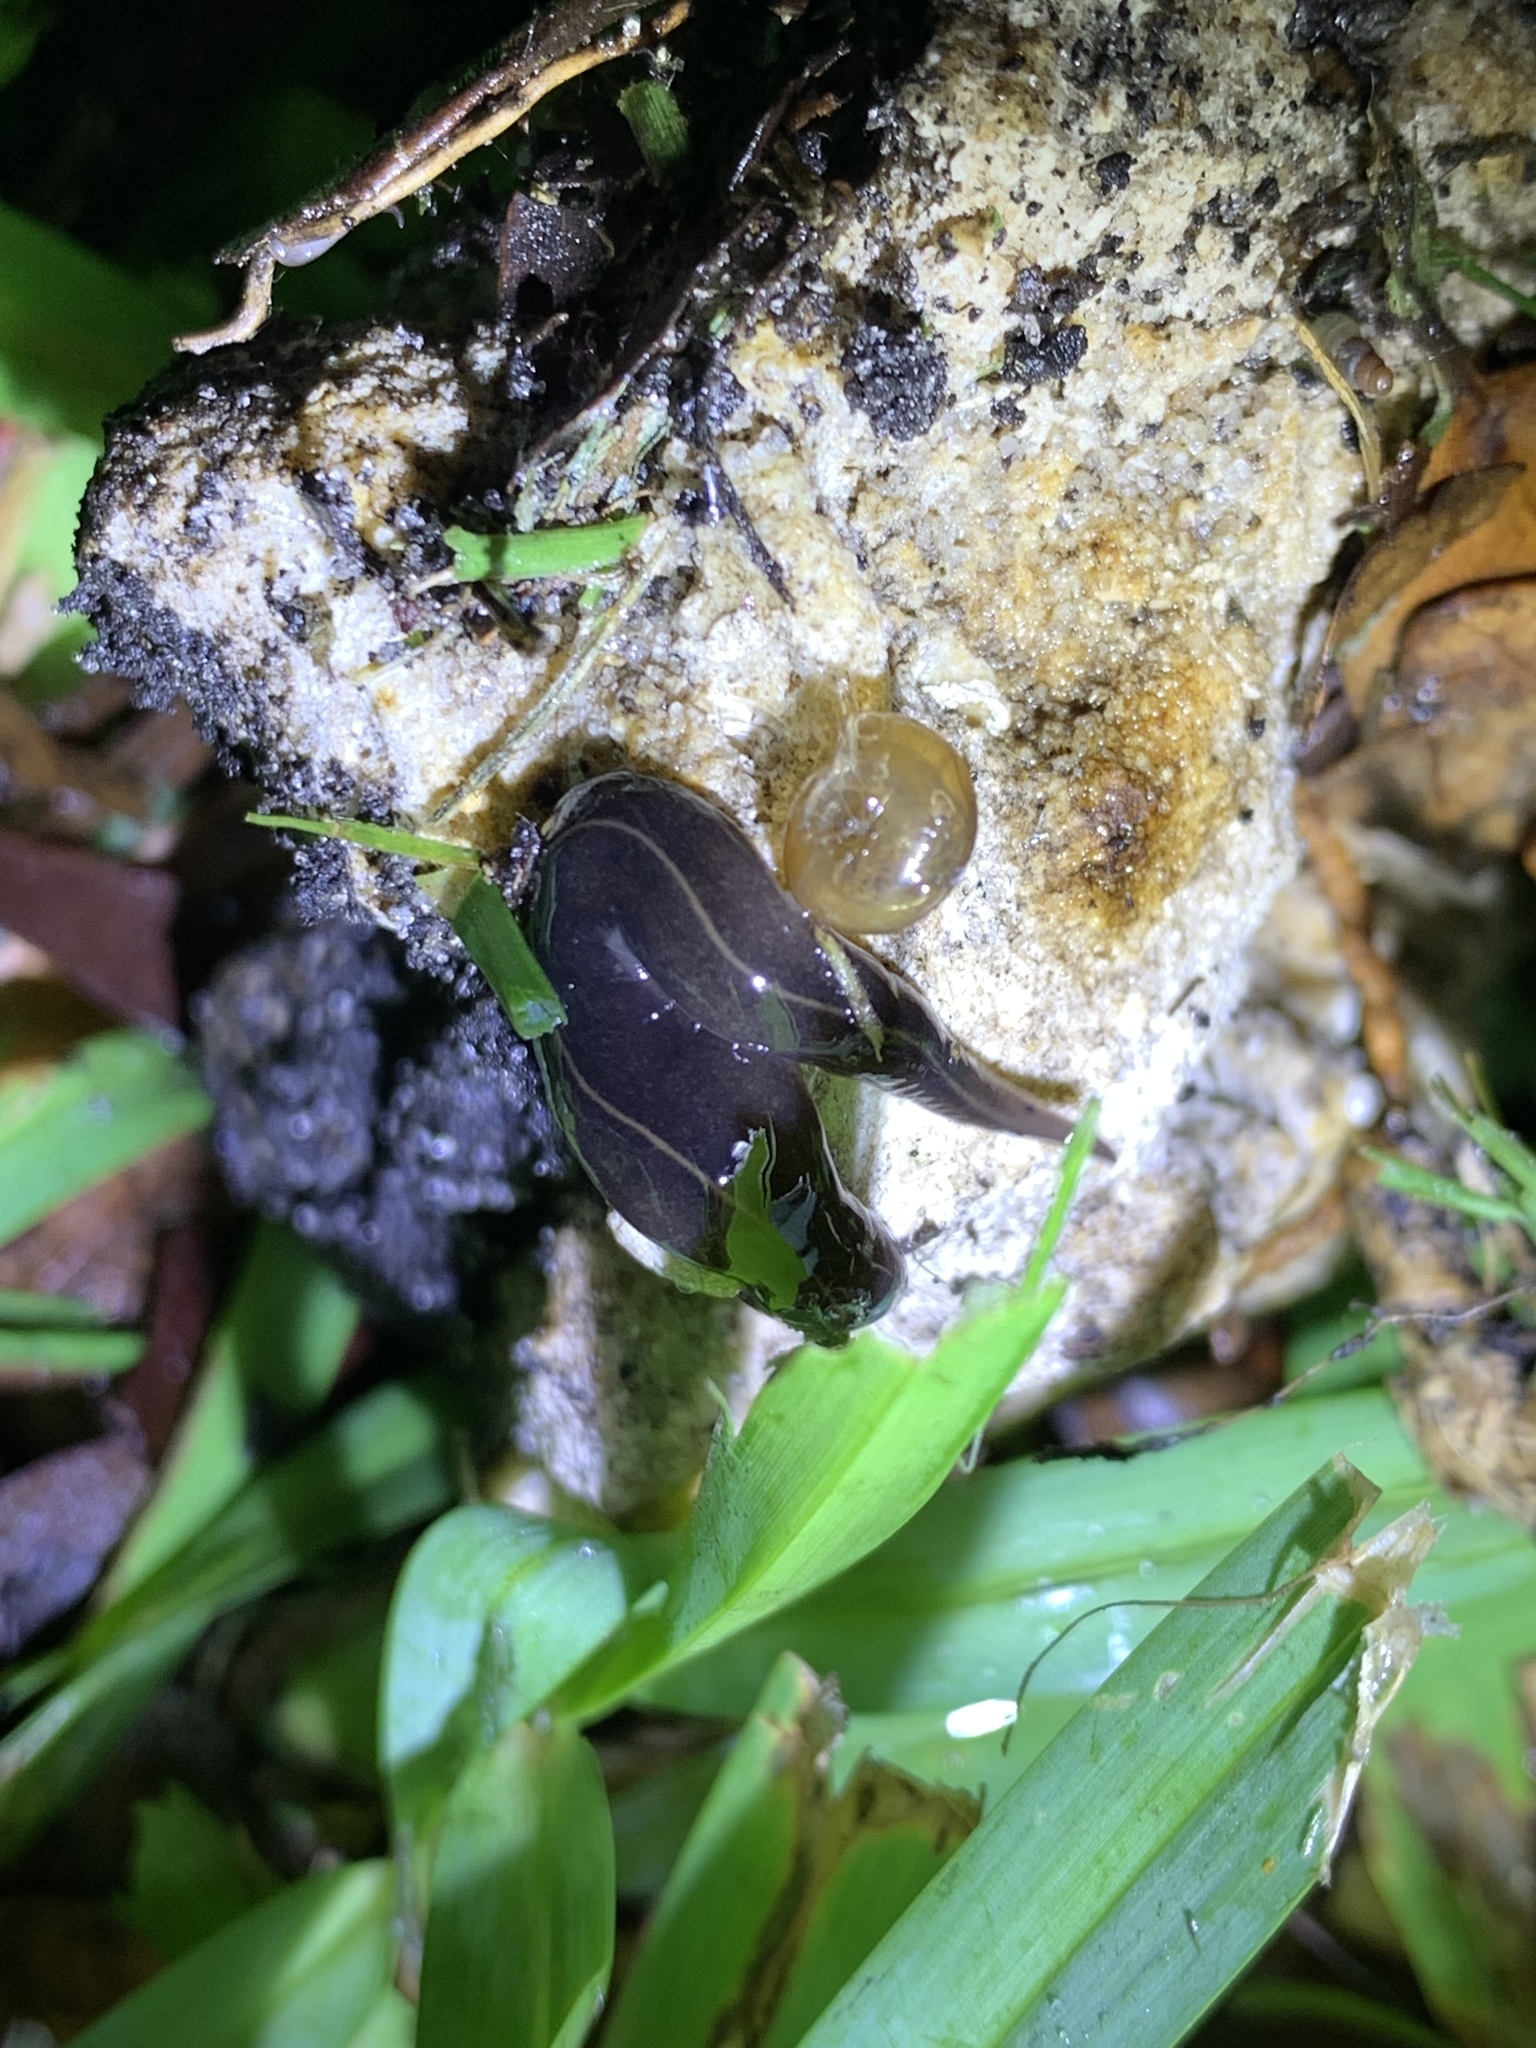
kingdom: Animalia
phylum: Platyhelminthes
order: Tricladida
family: Geoplanidae
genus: Platydemus
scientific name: Platydemus manokwari
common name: New guinea flatworm
